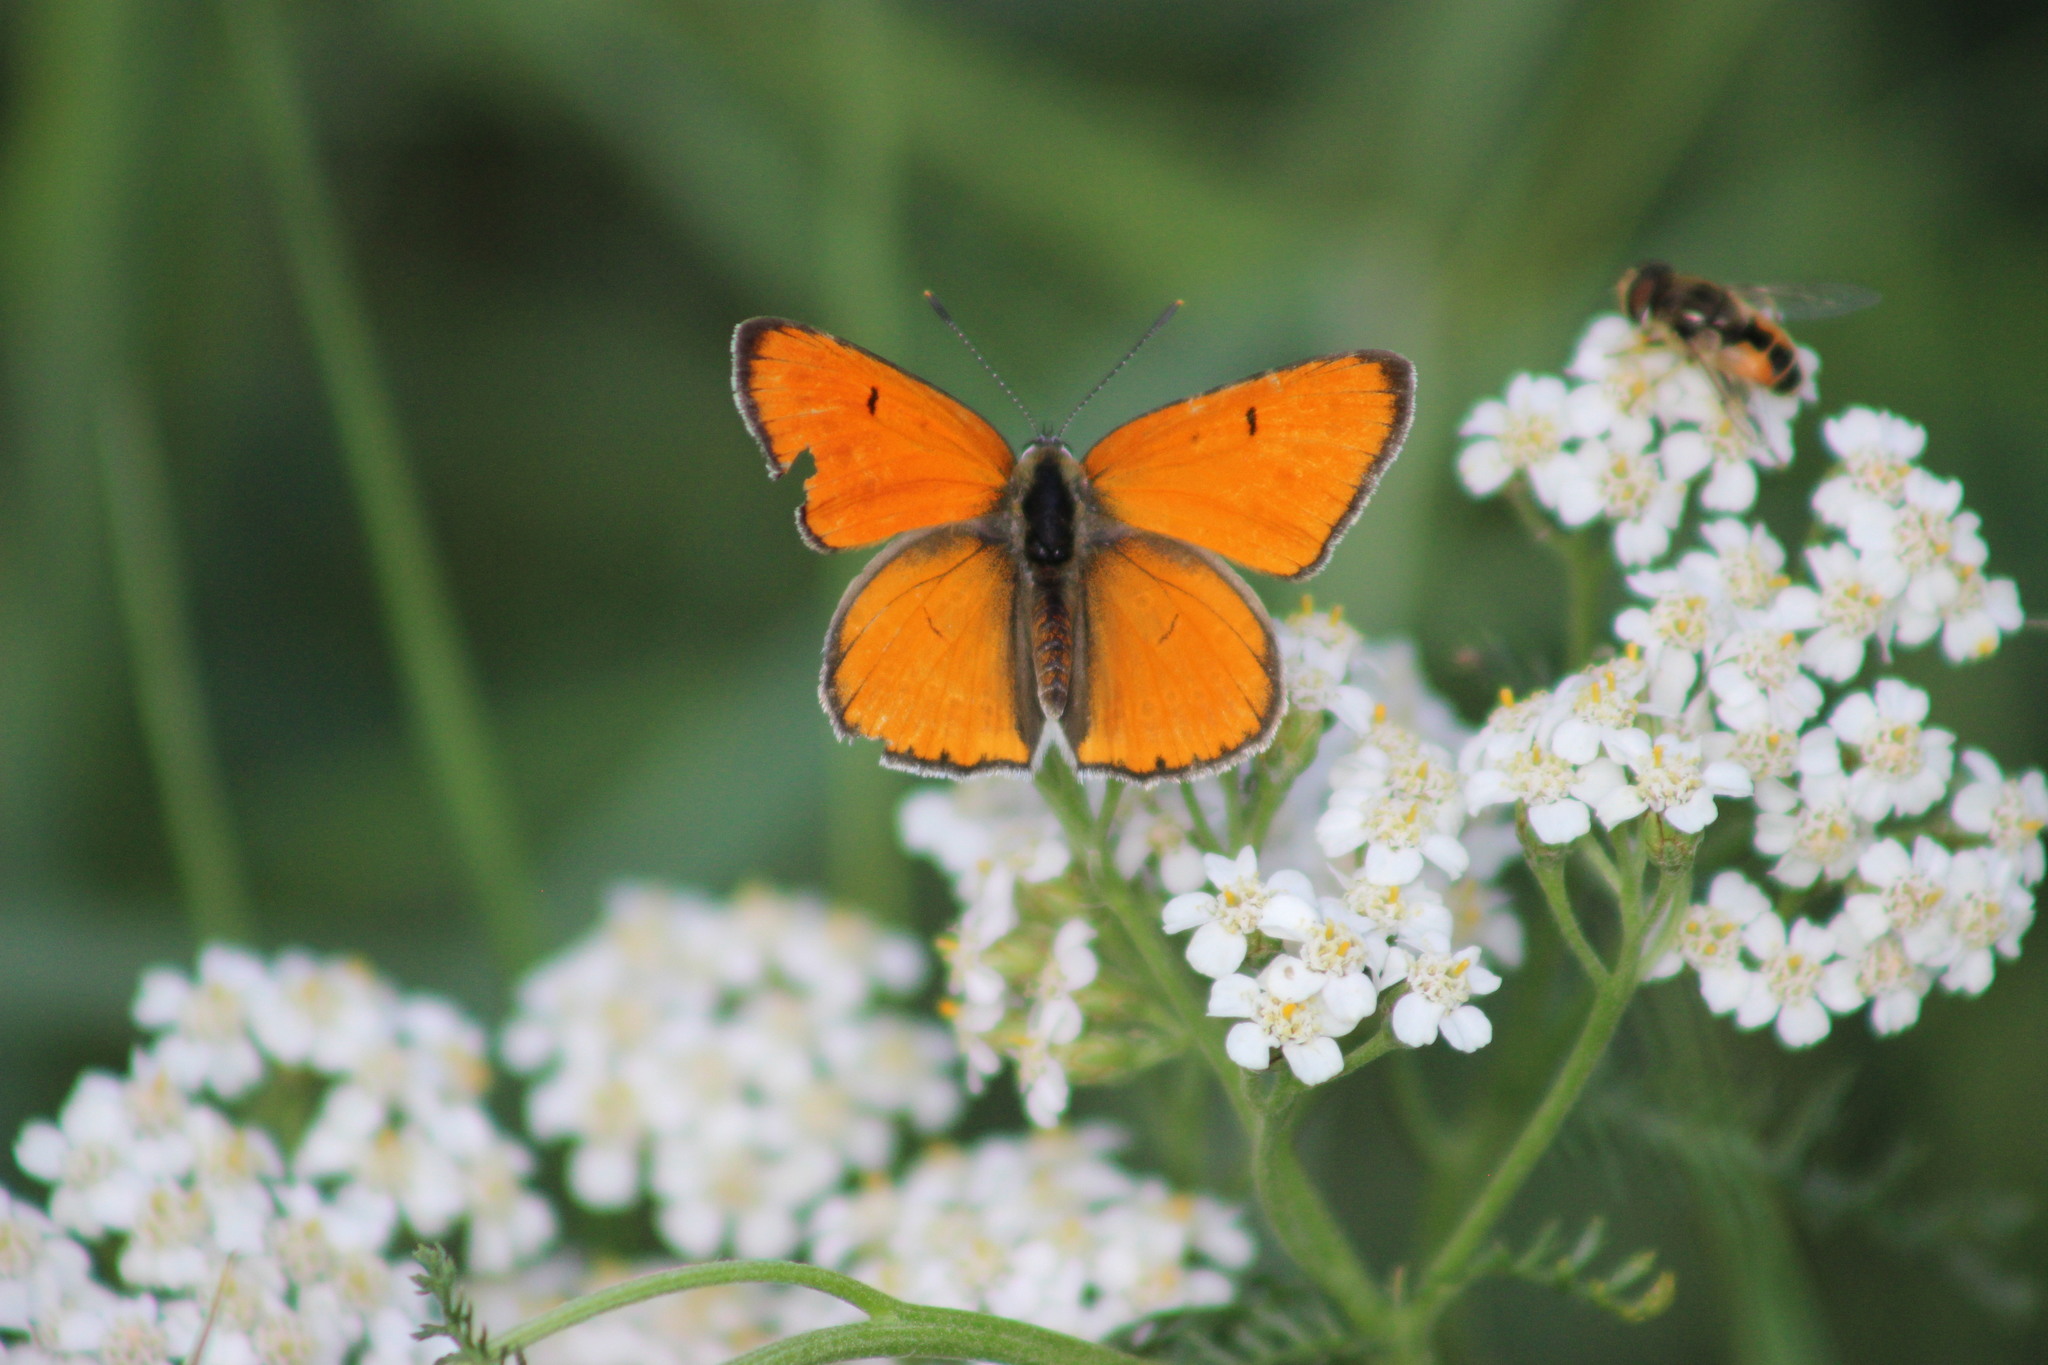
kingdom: Animalia
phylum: Arthropoda
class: Insecta
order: Lepidoptera
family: Lycaenidae
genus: Lycaena
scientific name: Lycaena dispar
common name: Large copper
